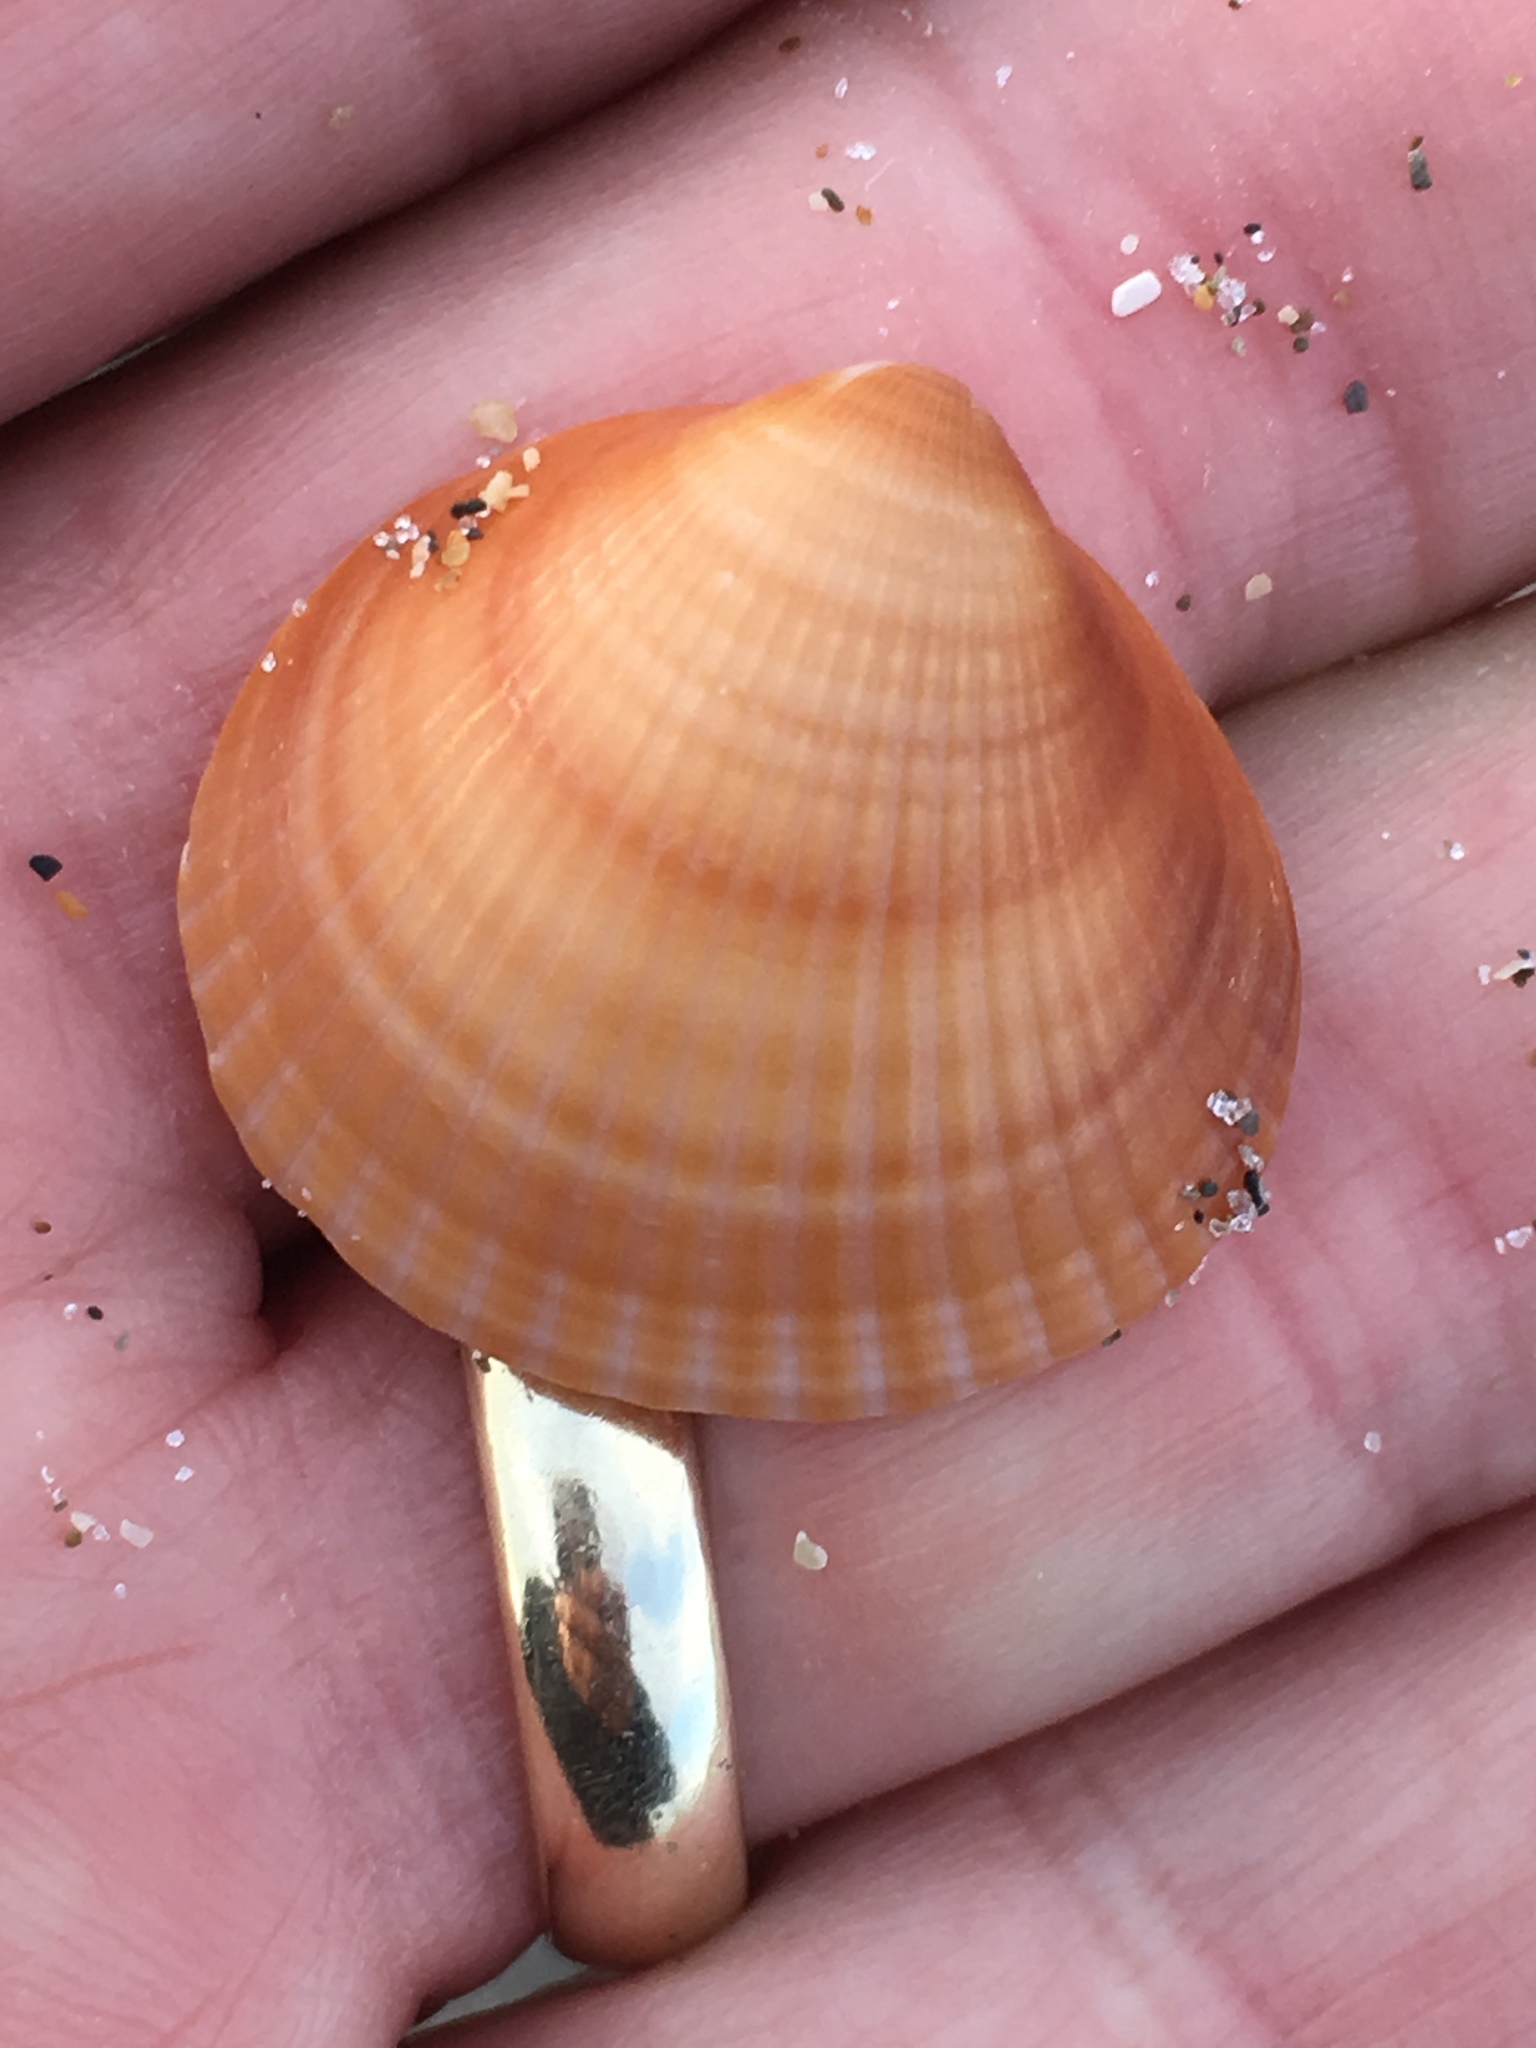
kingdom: Animalia
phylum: Mollusca
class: Bivalvia
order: Arcida
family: Glycymerididae
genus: Glycymeris
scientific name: Glycymeris spectralis
